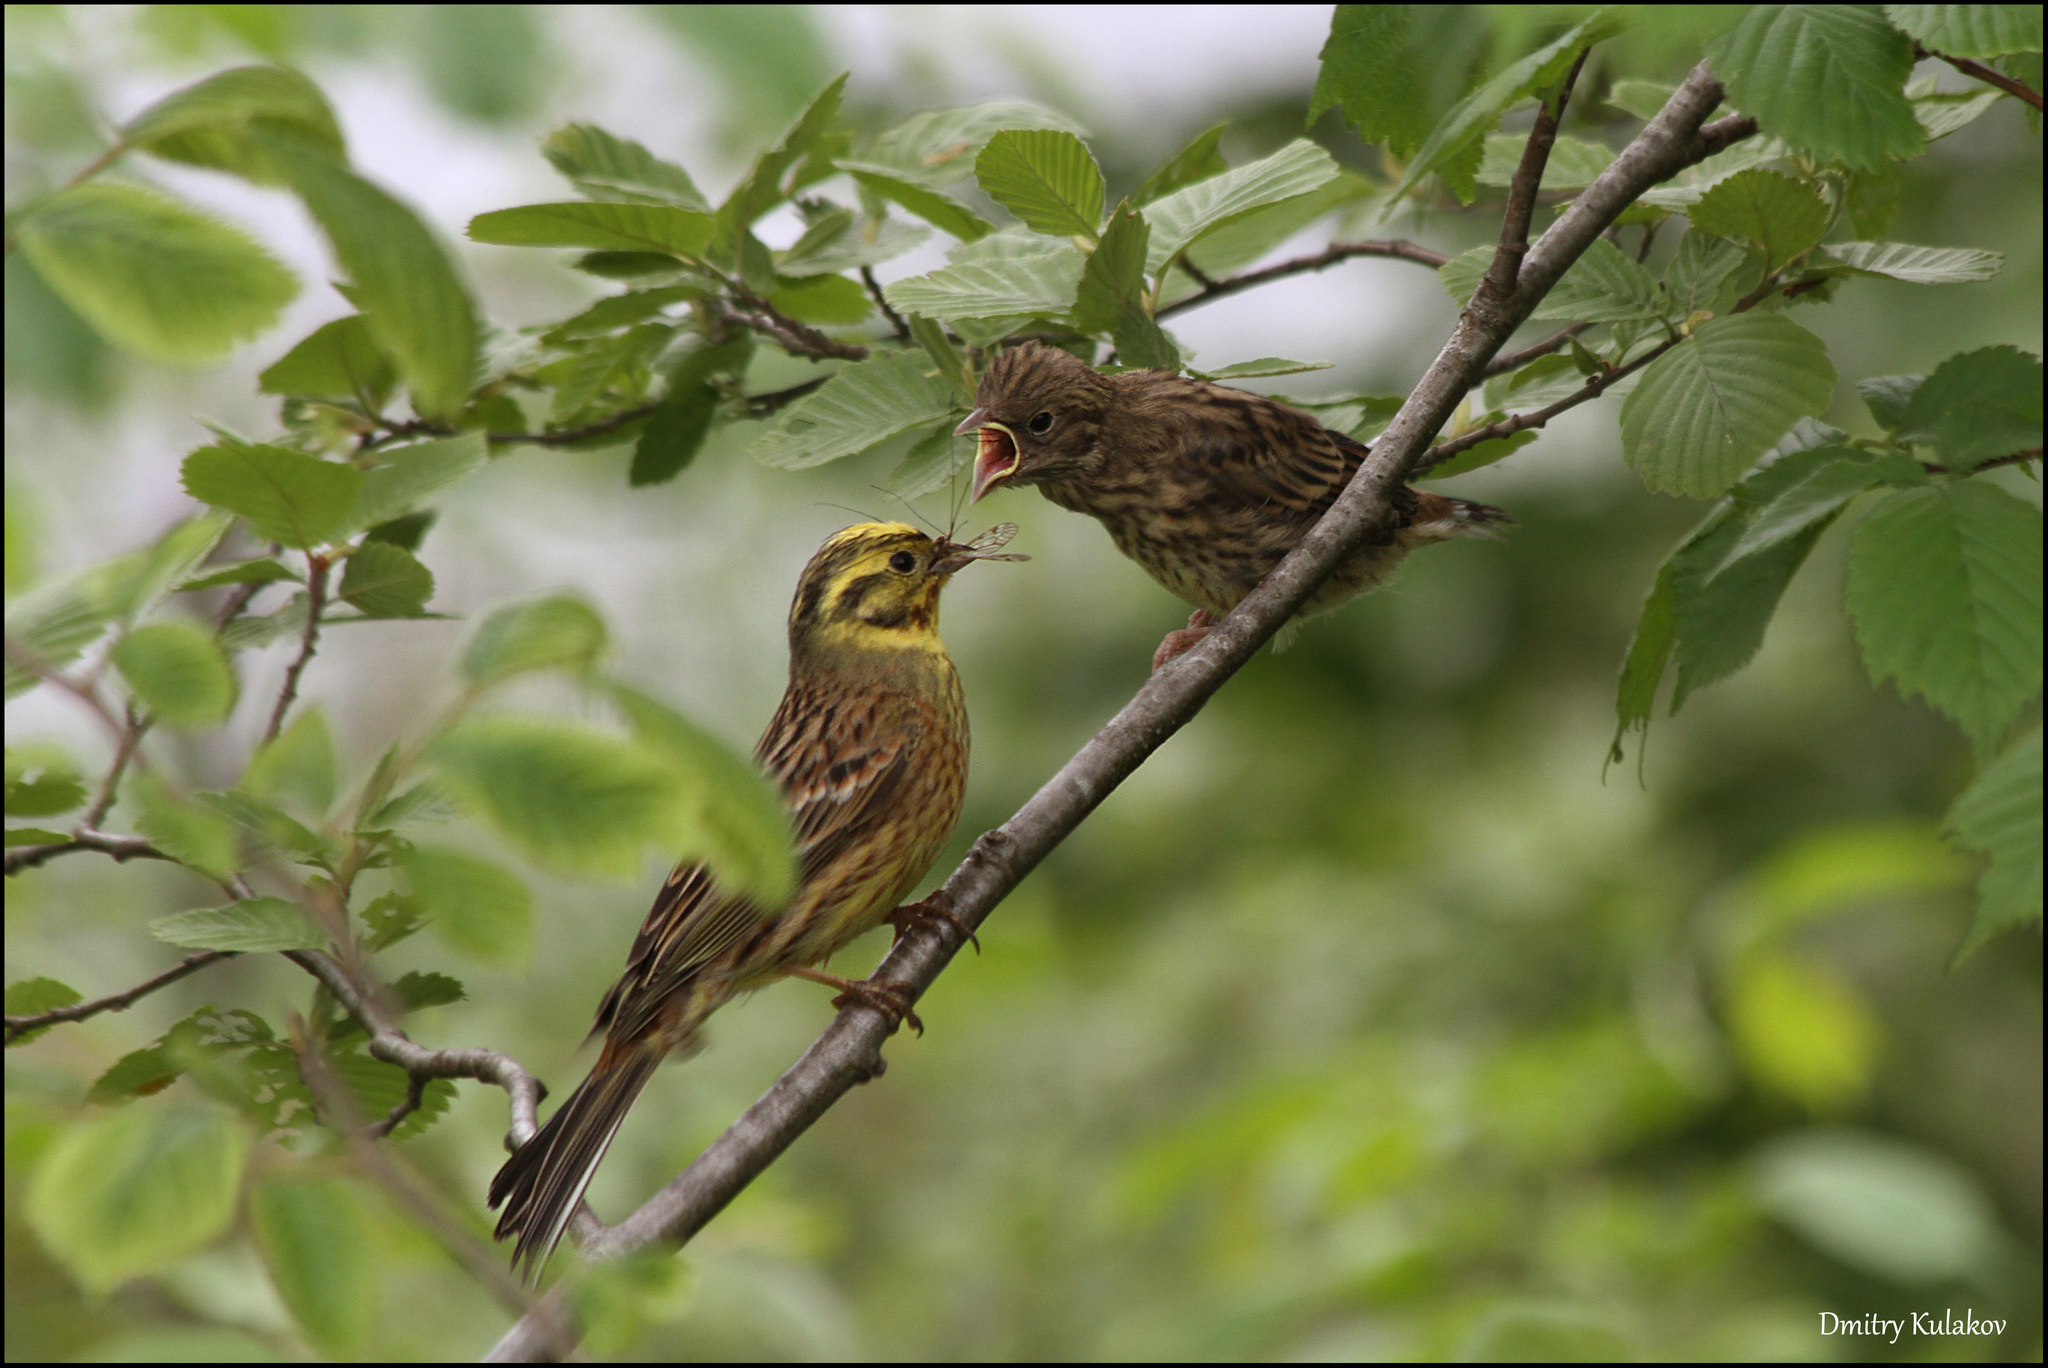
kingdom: Animalia
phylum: Chordata
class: Aves
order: Passeriformes
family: Emberizidae
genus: Emberiza
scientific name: Emberiza citrinella
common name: Yellowhammer
